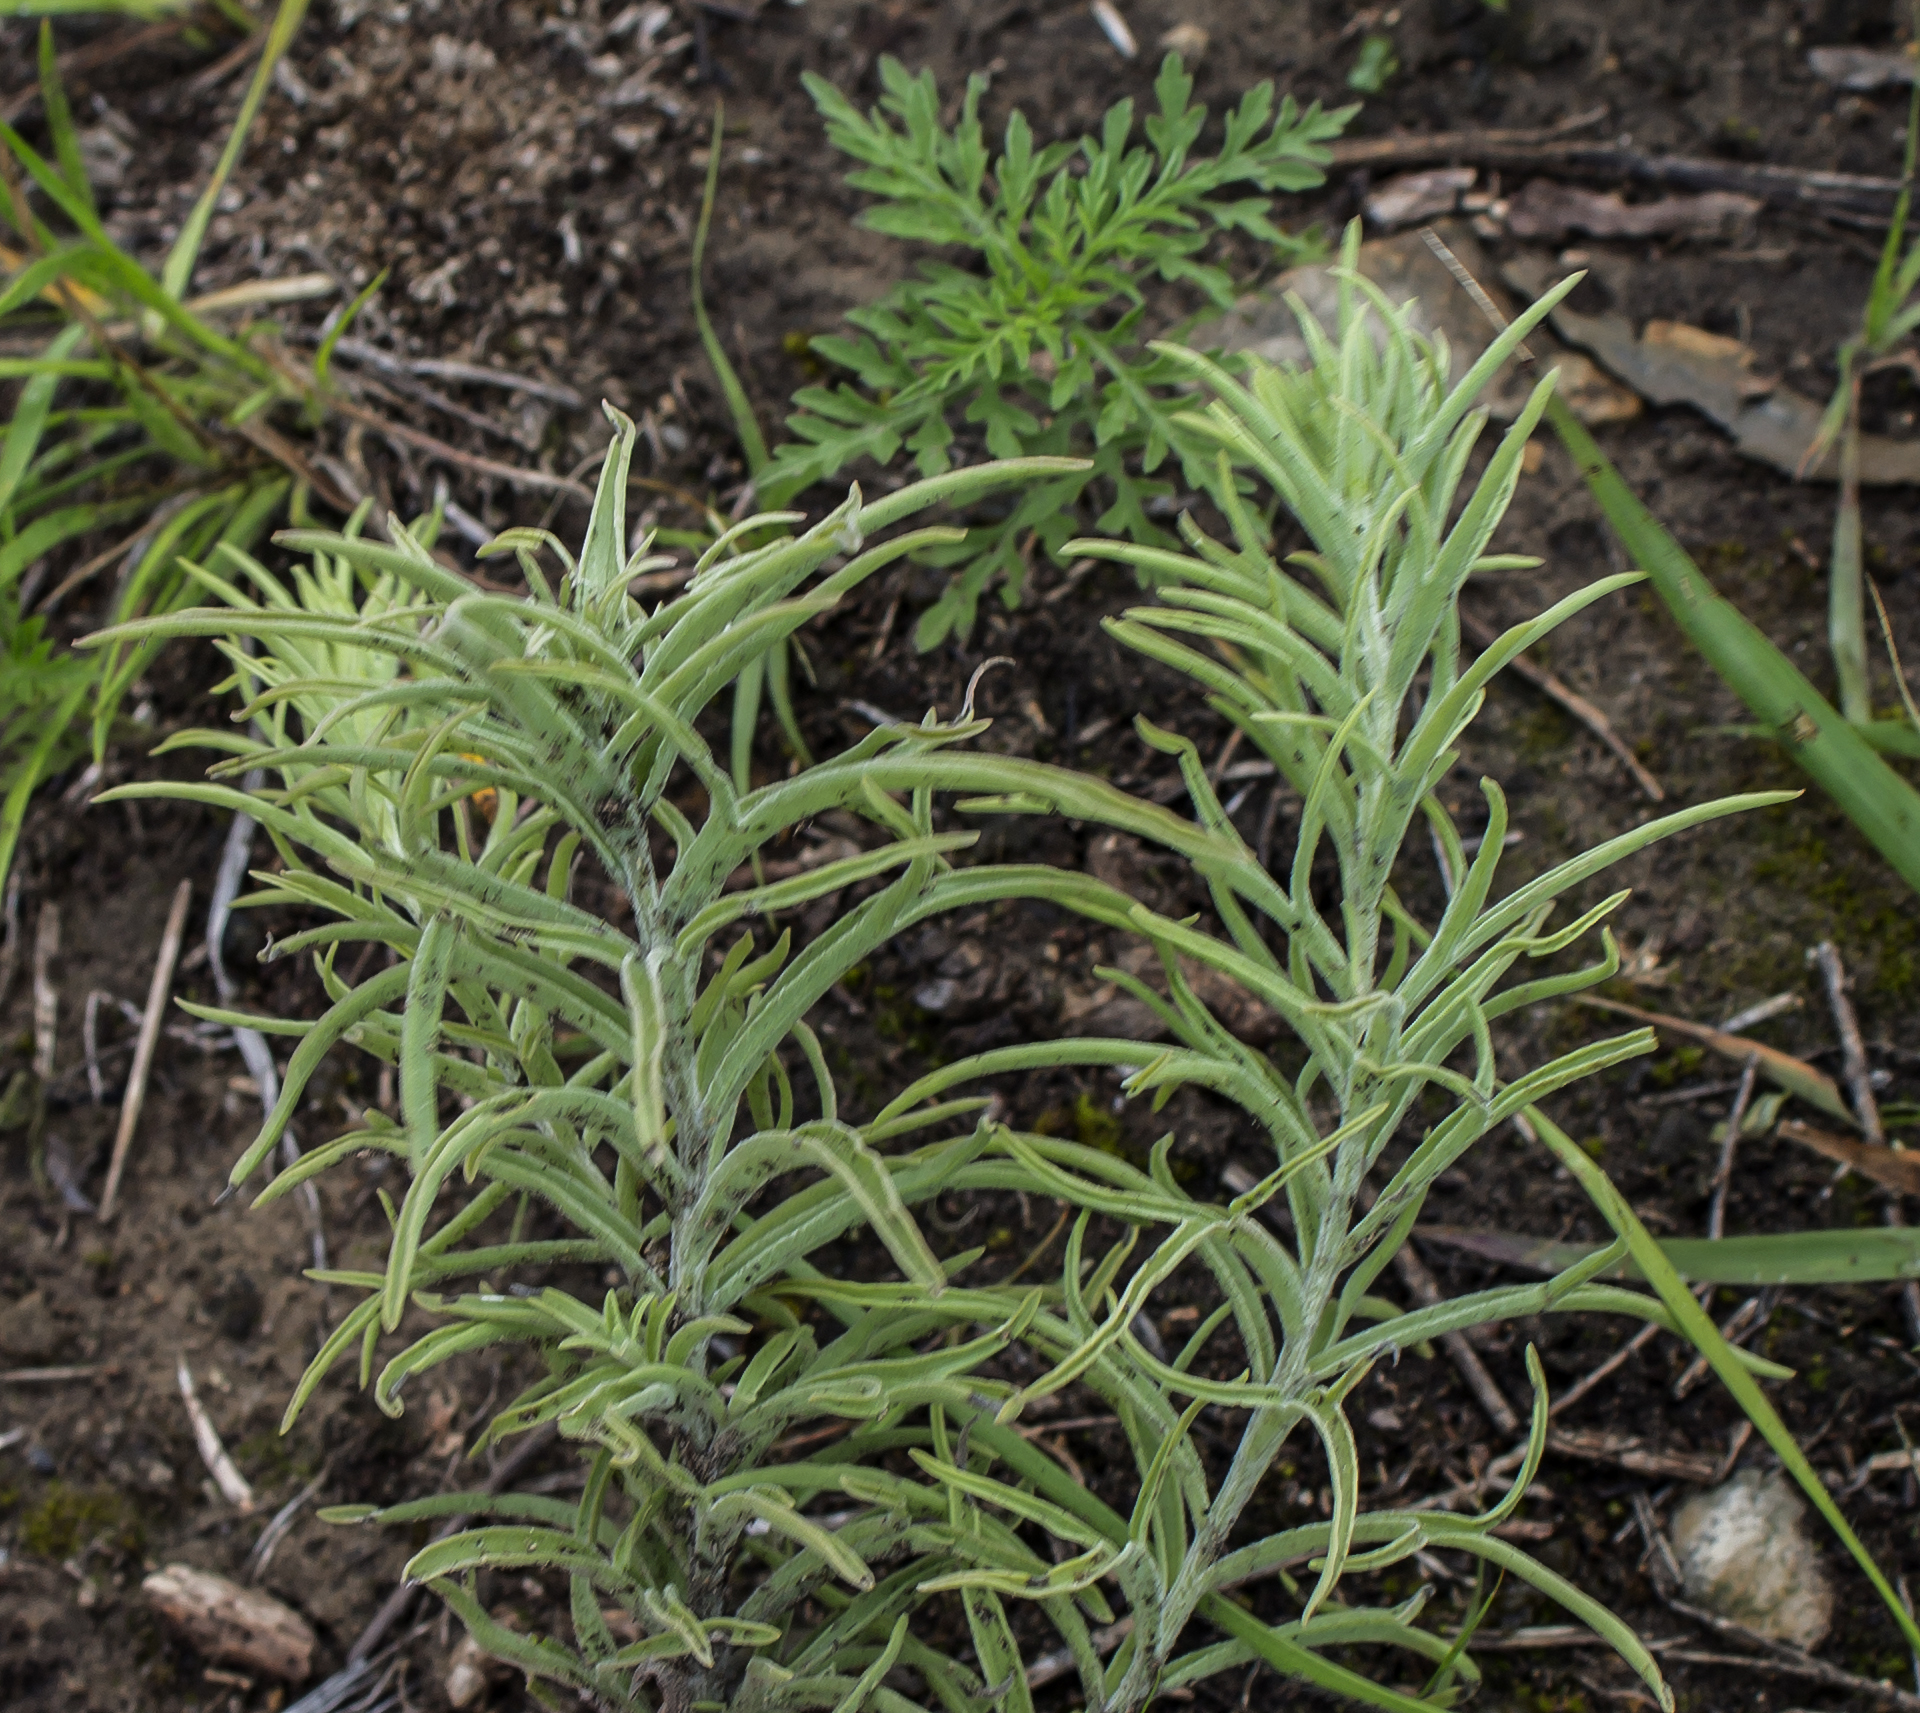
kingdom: Plantae
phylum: Tracheophyta
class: Magnoliopsida
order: Lamiales
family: Orobanchaceae
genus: Castilleja
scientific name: Castilleja sessiliflora
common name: Downy paintbrush
